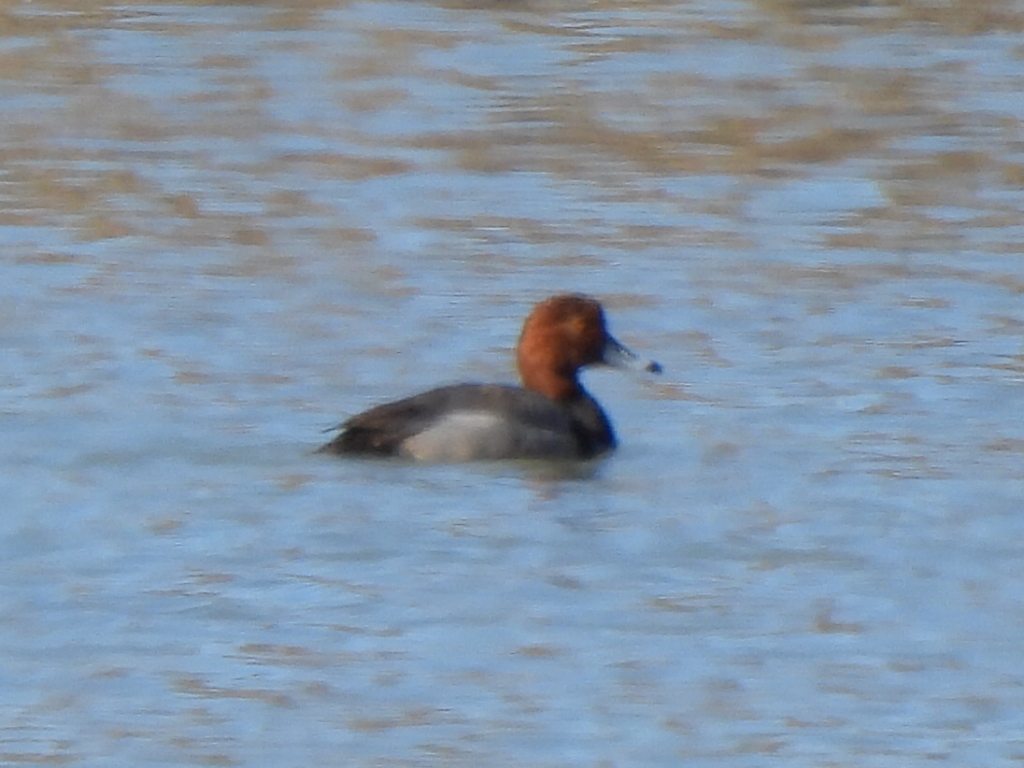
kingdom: Animalia
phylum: Chordata
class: Aves
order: Anseriformes
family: Anatidae
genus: Aythya
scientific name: Aythya americana
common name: Redhead
